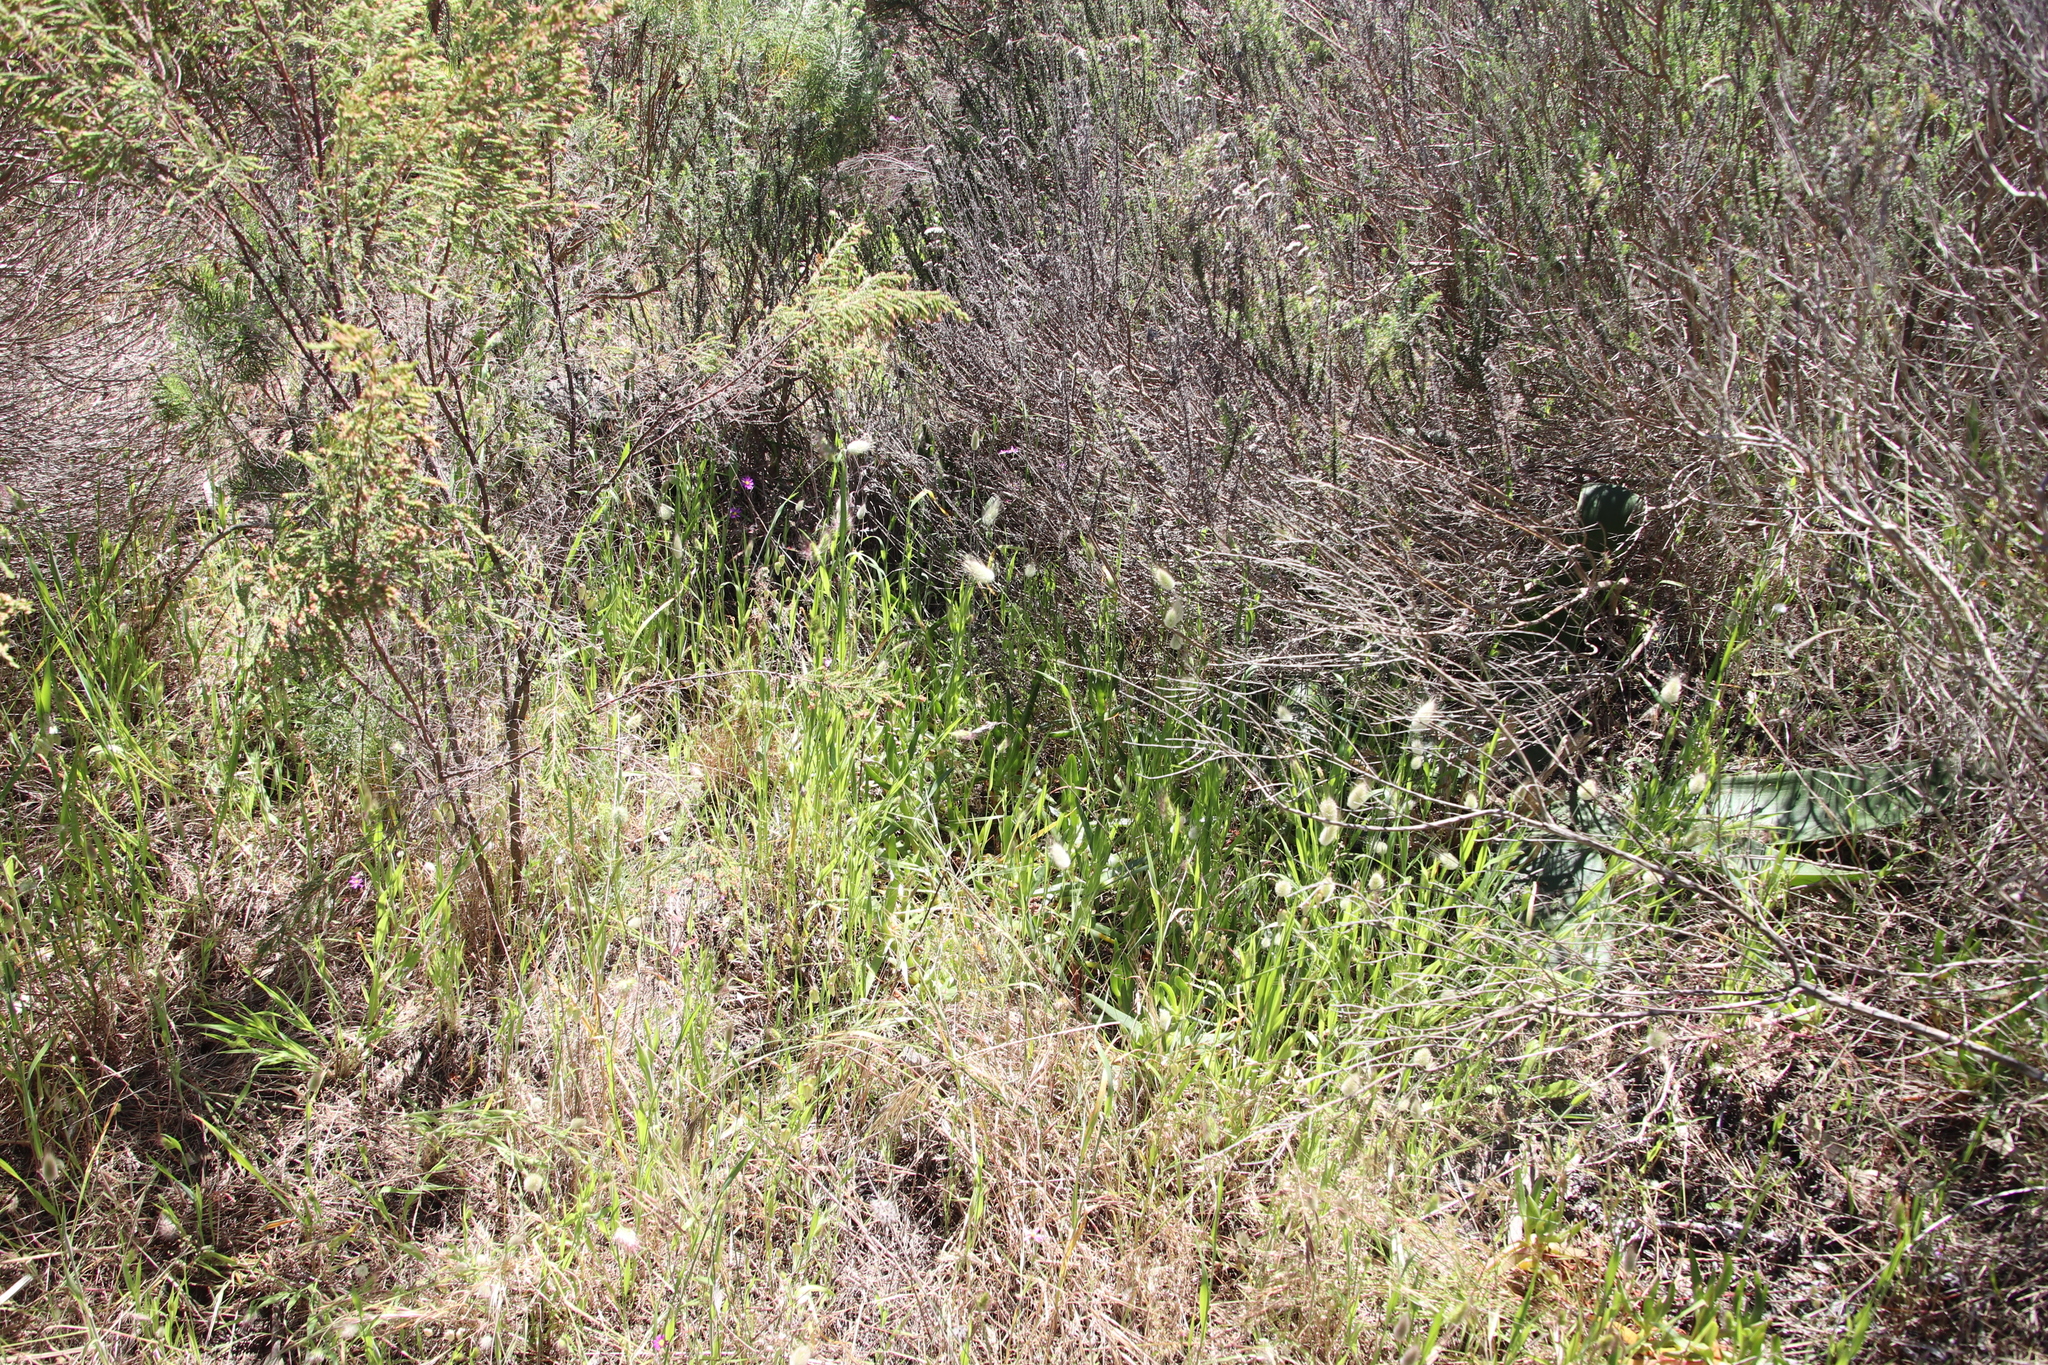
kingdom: Plantae
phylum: Tracheophyta
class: Magnoliopsida
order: Fabales
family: Fabaceae
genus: Trifolium
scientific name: Trifolium angustifolium
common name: Narrow clover
